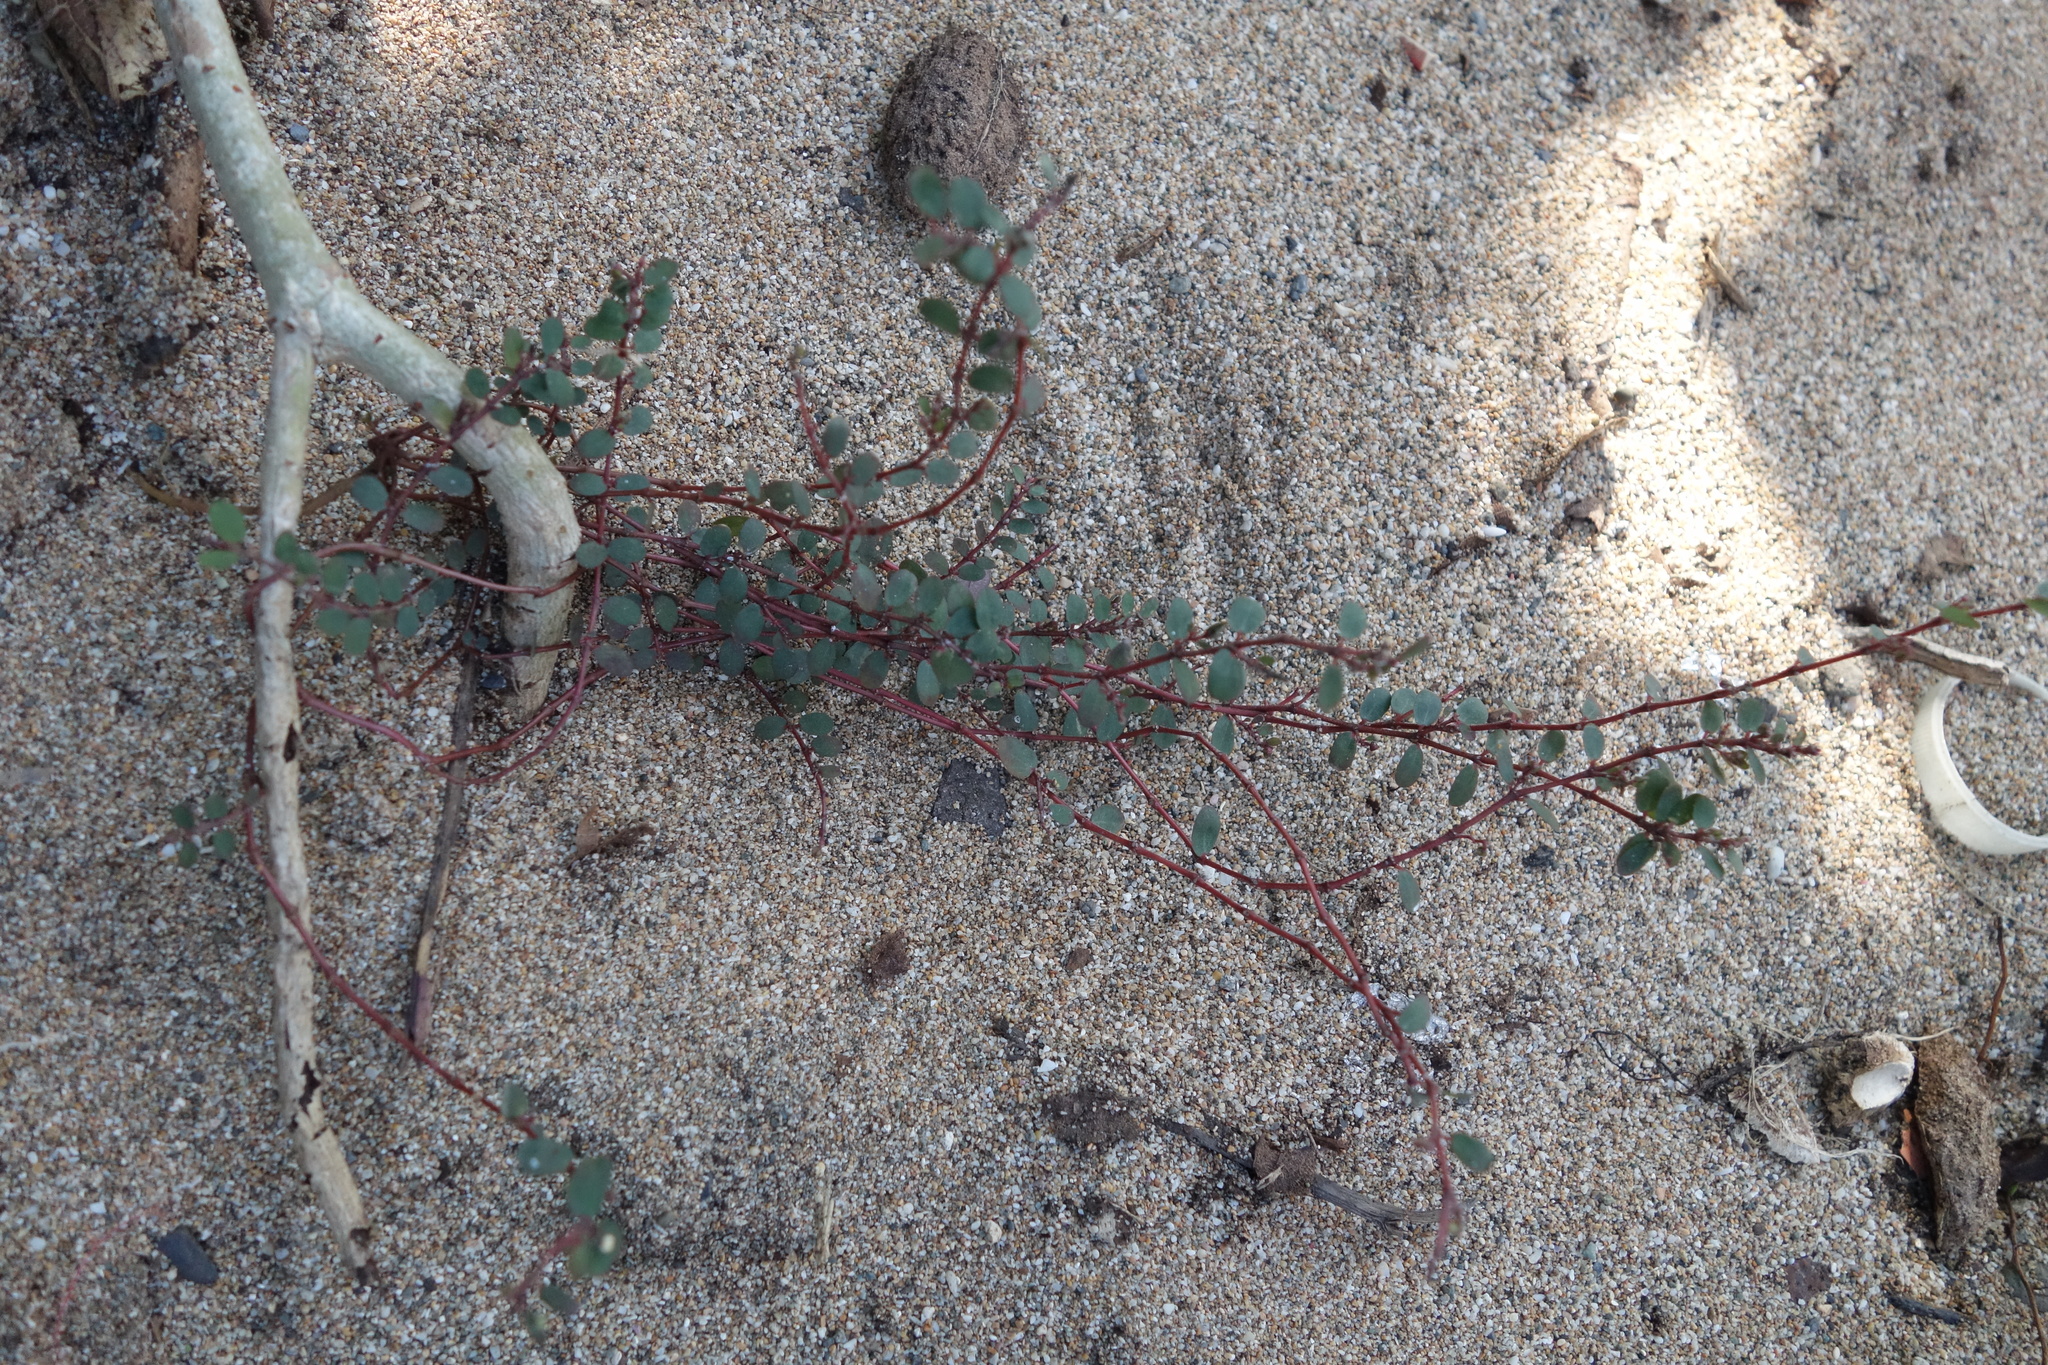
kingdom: Plantae
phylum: Tracheophyta
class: Magnoliopsida
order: Malpighiales
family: Euphorbiaceae
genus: Euphorbia
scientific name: Euphorbia prostrata
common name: Prostrate sandmat
